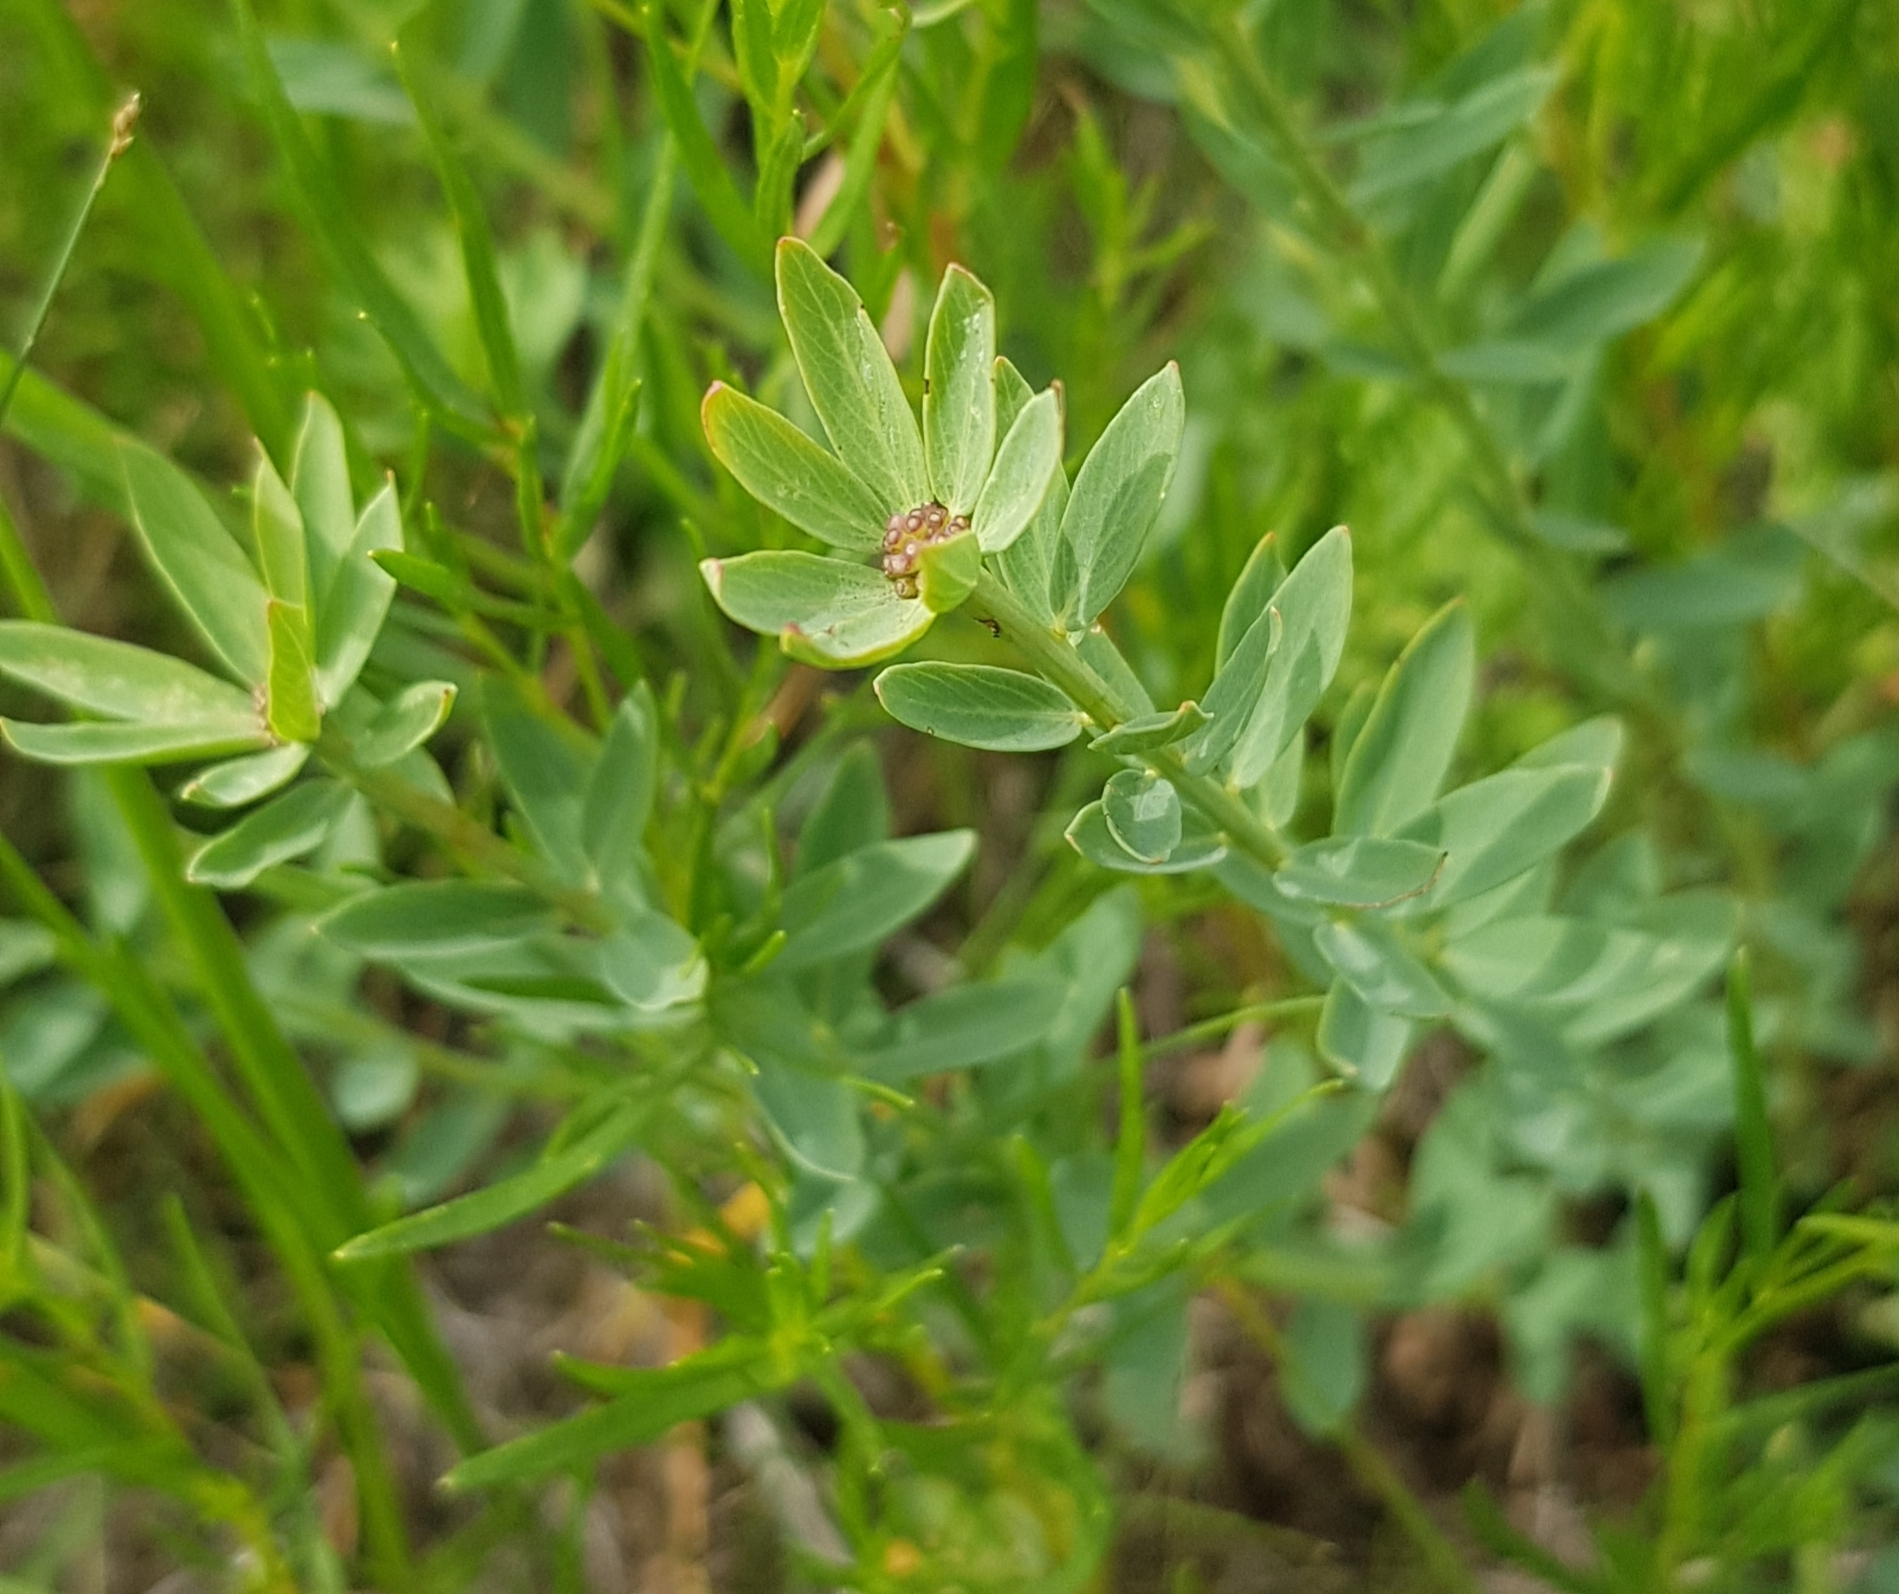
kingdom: Plantae
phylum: Tracheophyta
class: Magnoliopsida
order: Malvales
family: Thymelaeaceae
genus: Stellera
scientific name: Stellera chamaejasme
